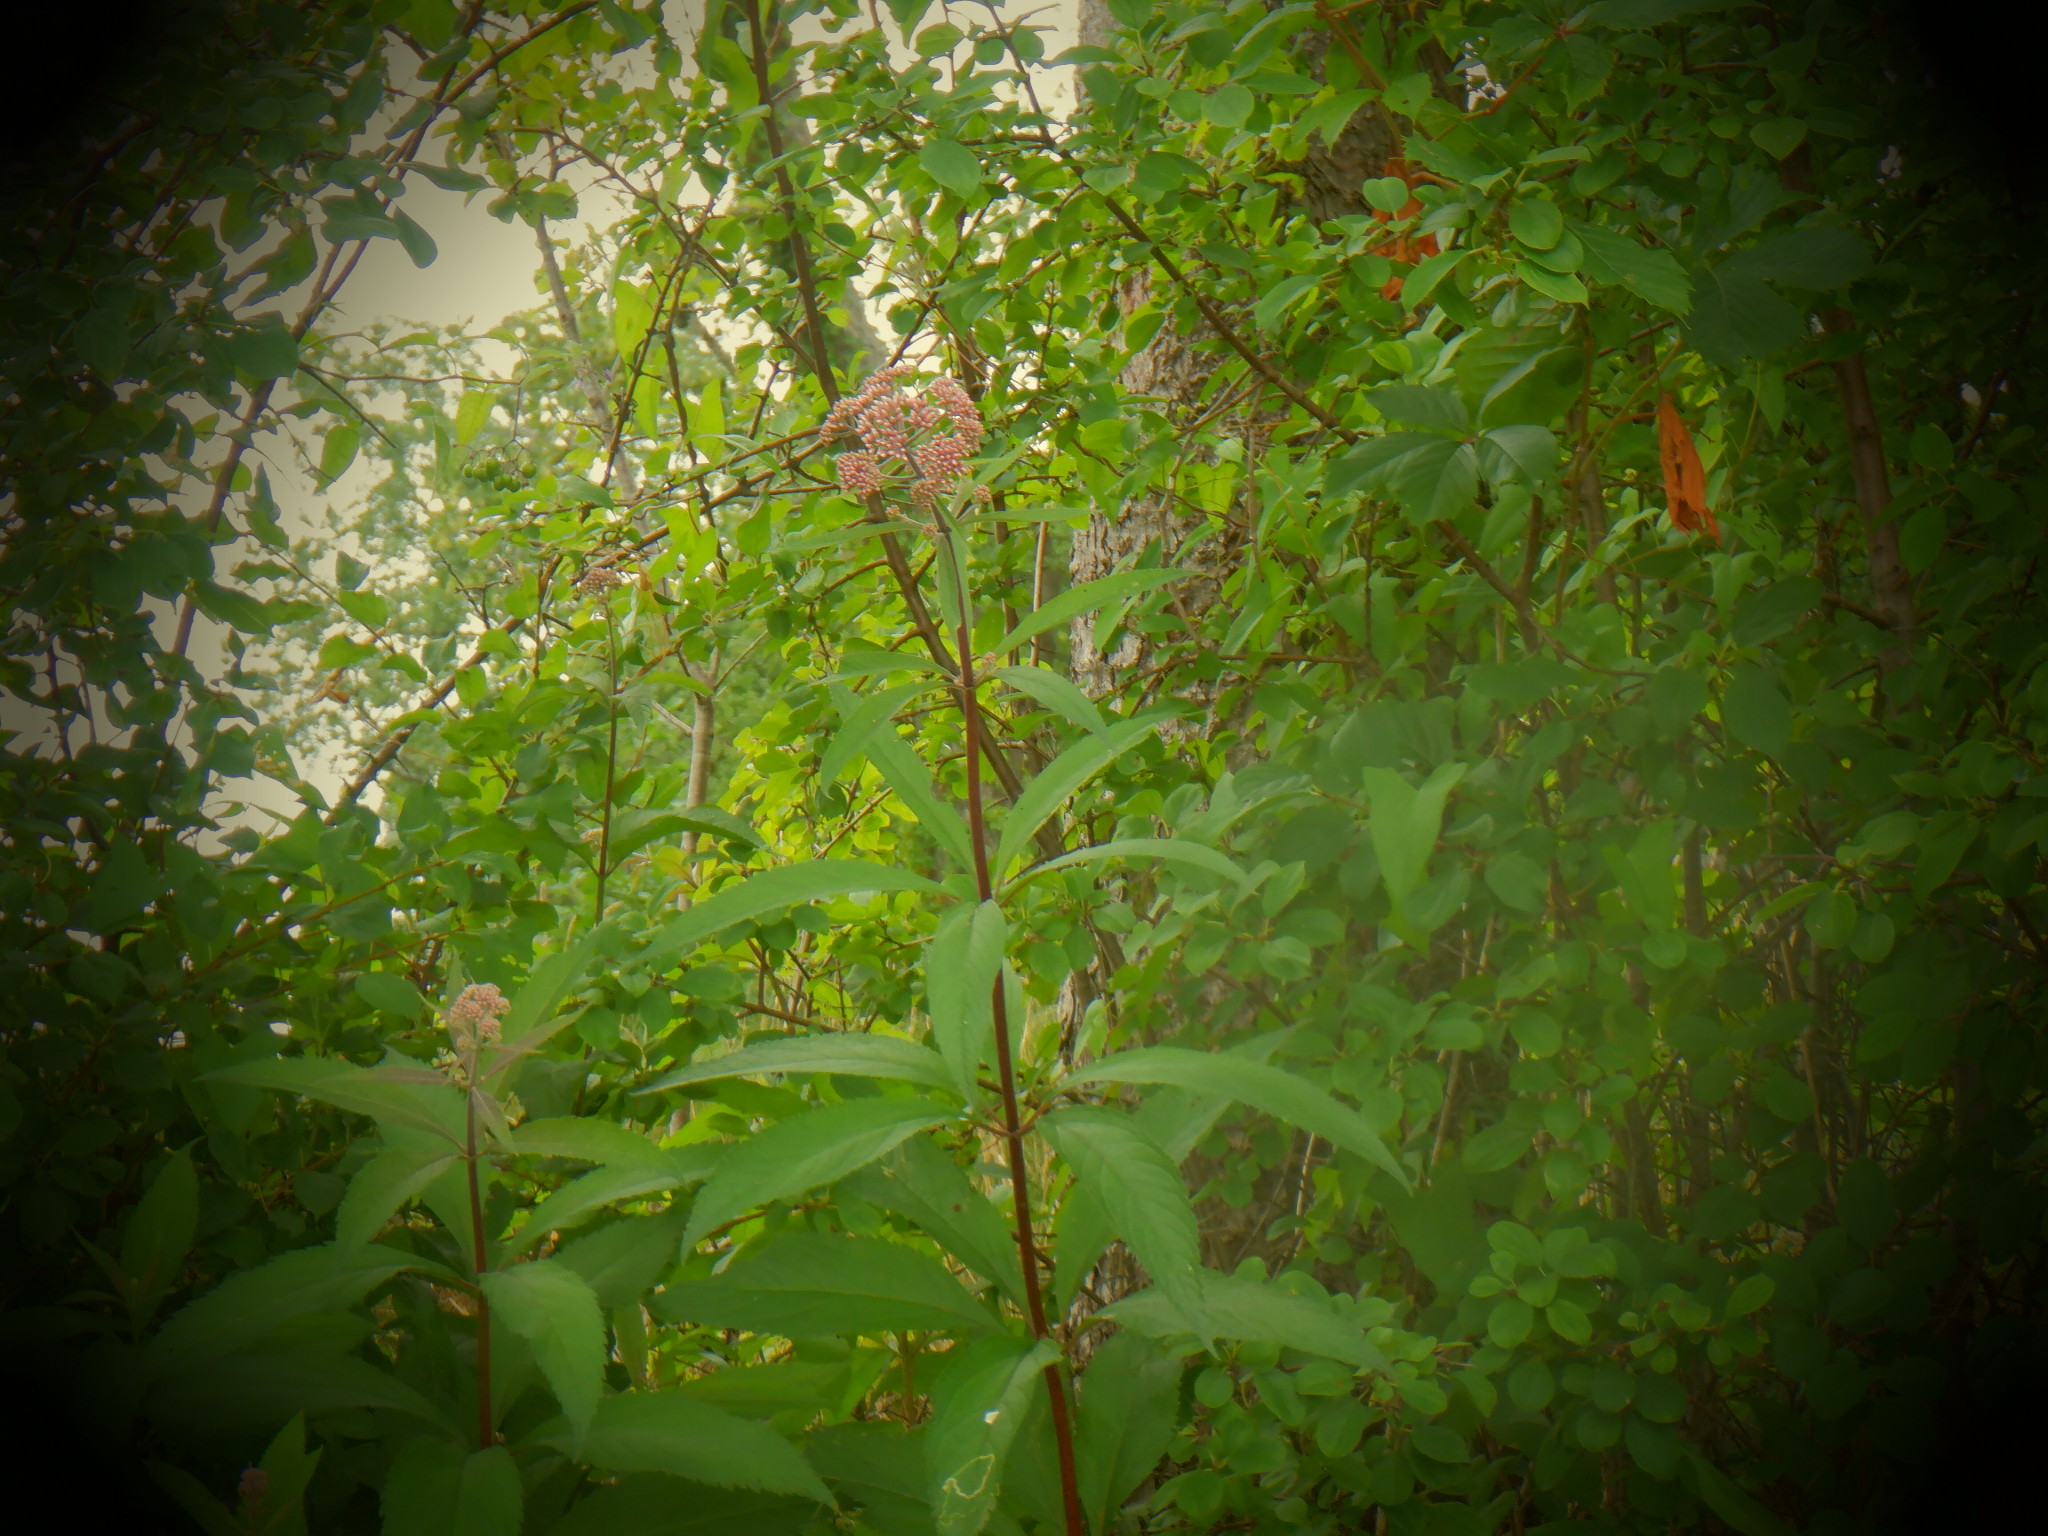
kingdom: Plantae
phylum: Tracheophyta
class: Magnoliopsida
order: Asterales
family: Asteraceae
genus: Eutrochium
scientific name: Eutrochium maculatum
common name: Spotted joe pye weed
